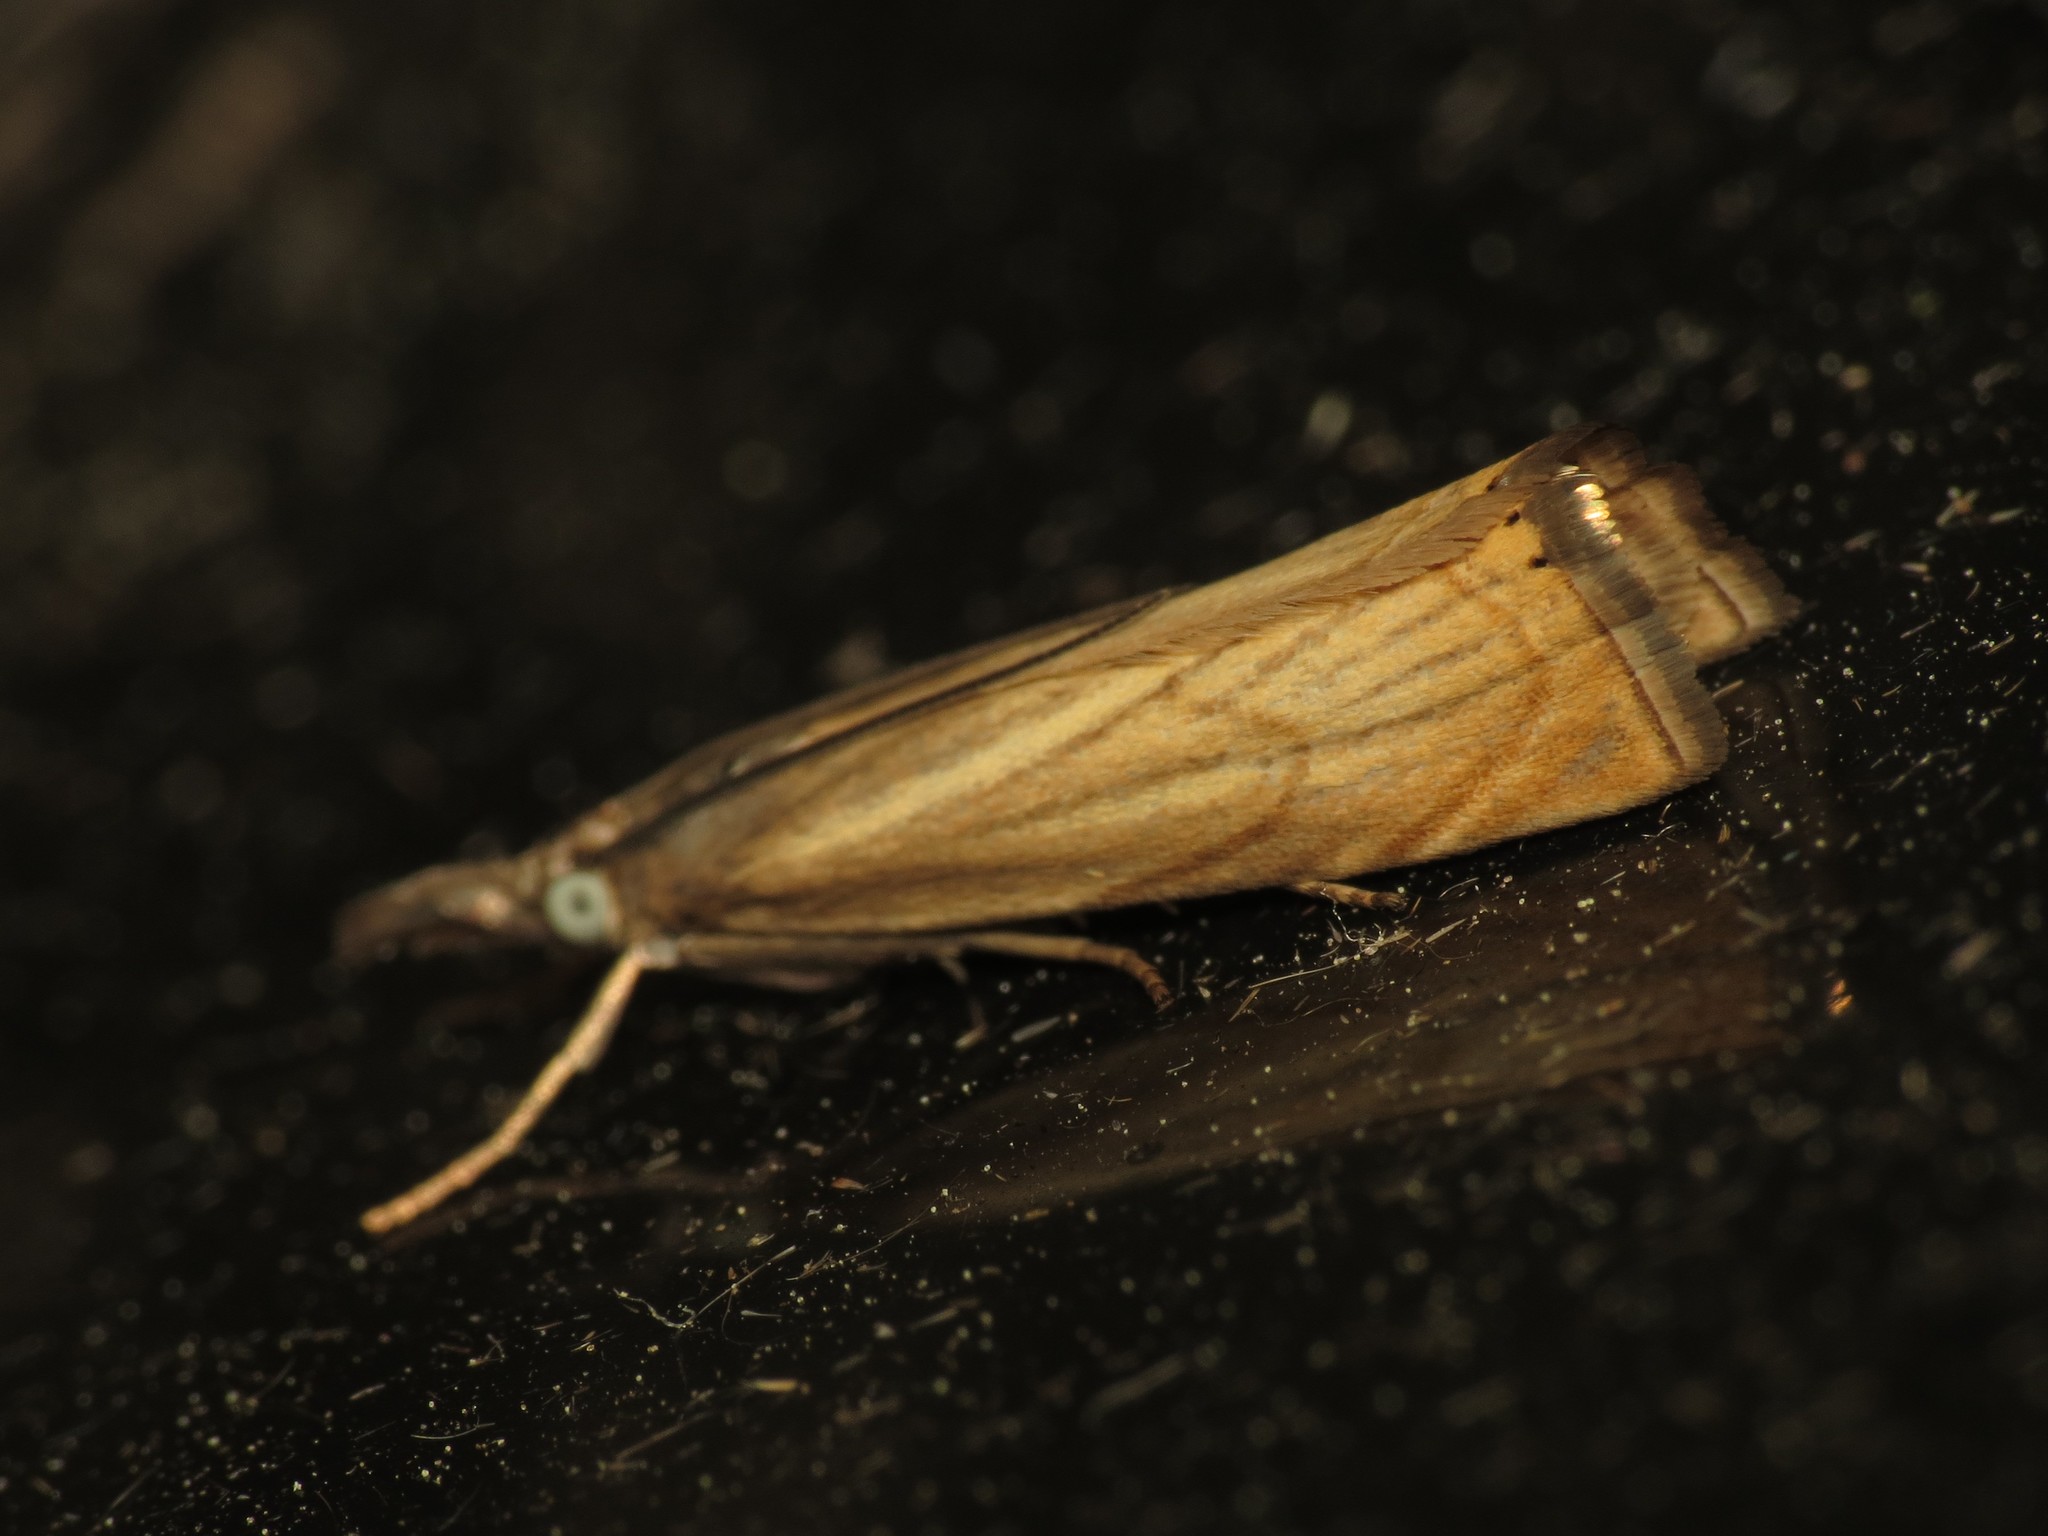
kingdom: Animalia
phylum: Arthropoda
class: Insecta
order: Lepidoptera
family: Crambidae
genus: Chrysoteuchia
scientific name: Chrysoteuchia culmella
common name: Garden grass-veneer
